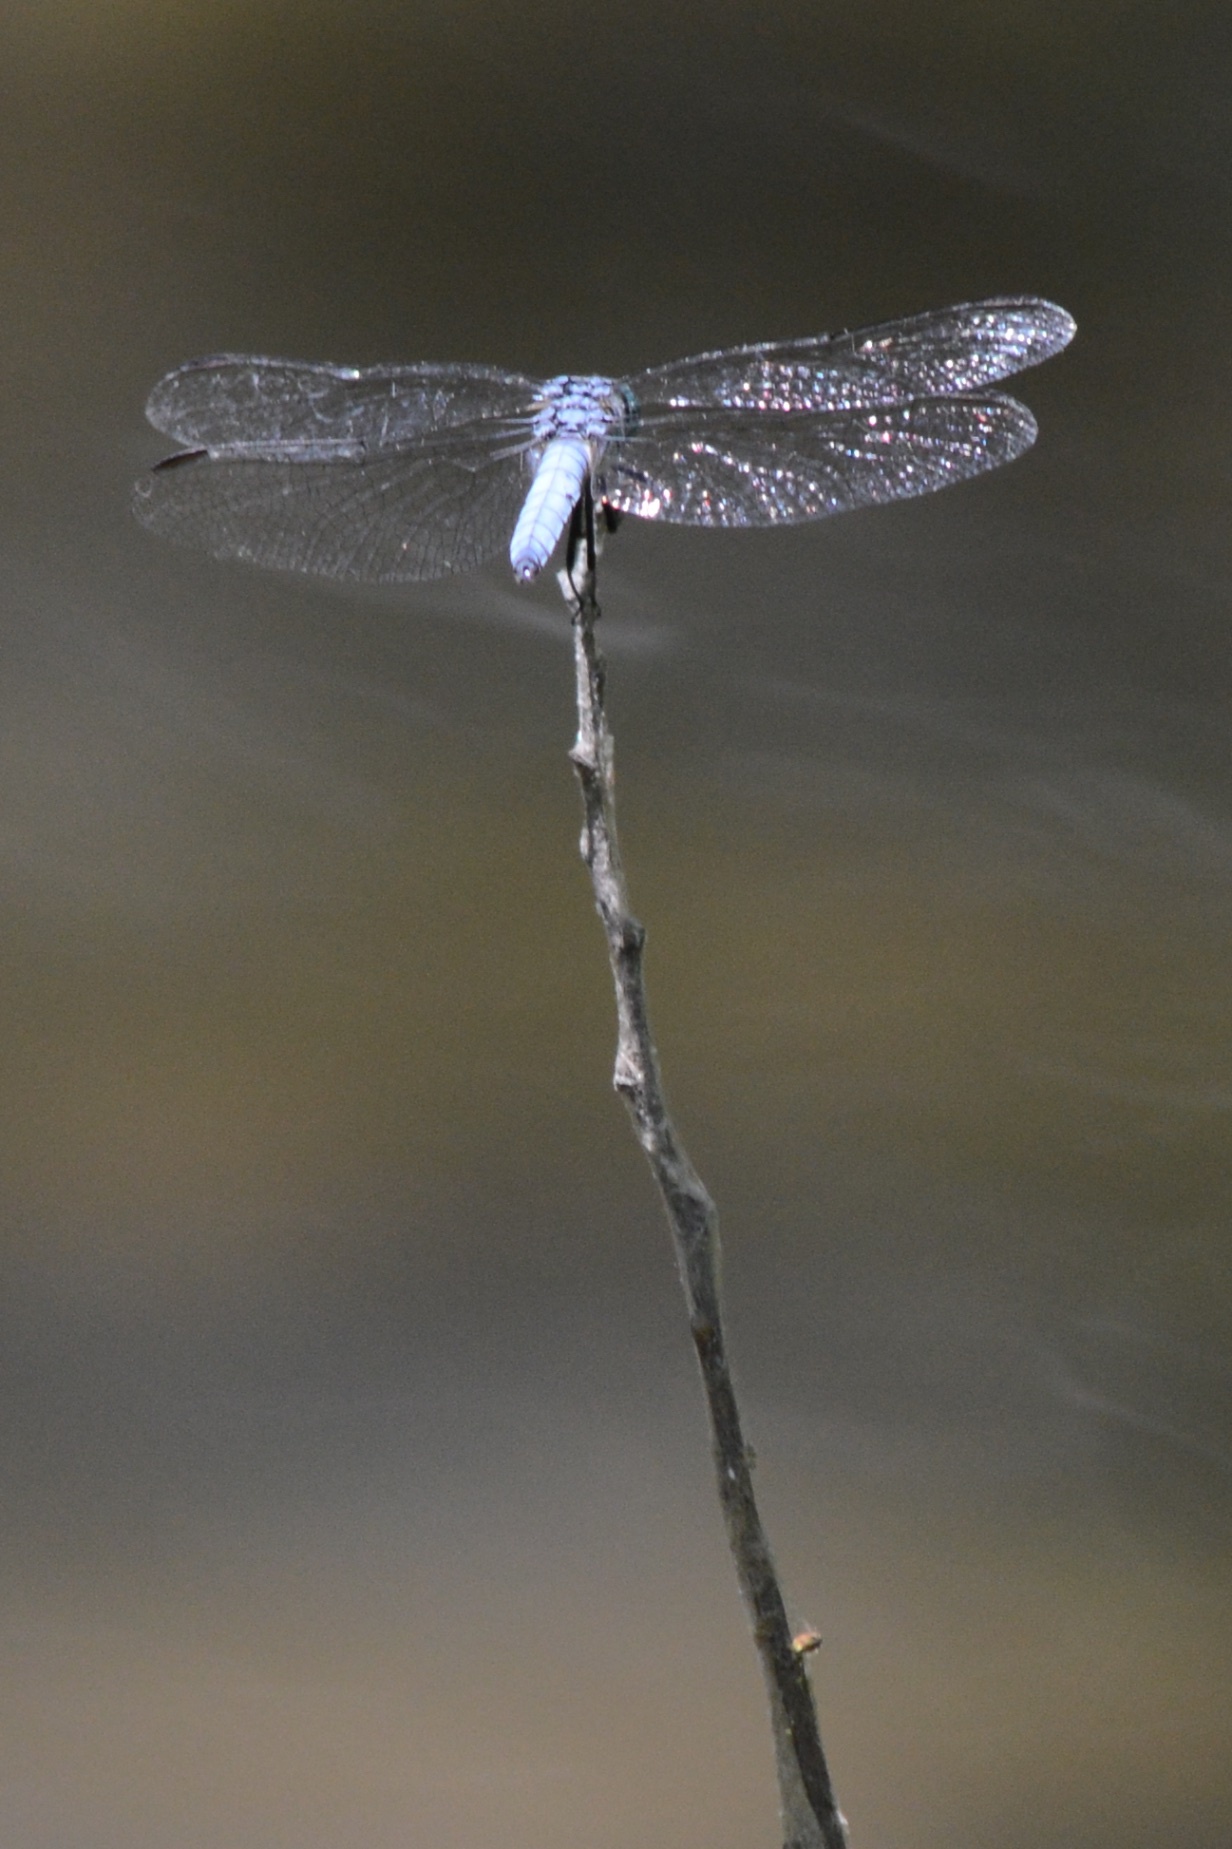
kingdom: Animalia
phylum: Arthropoda
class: Insecta
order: Odonata
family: Libellulidae
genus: Pachydiplax
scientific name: Pachydiplax longipennis
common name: Blue dasher
